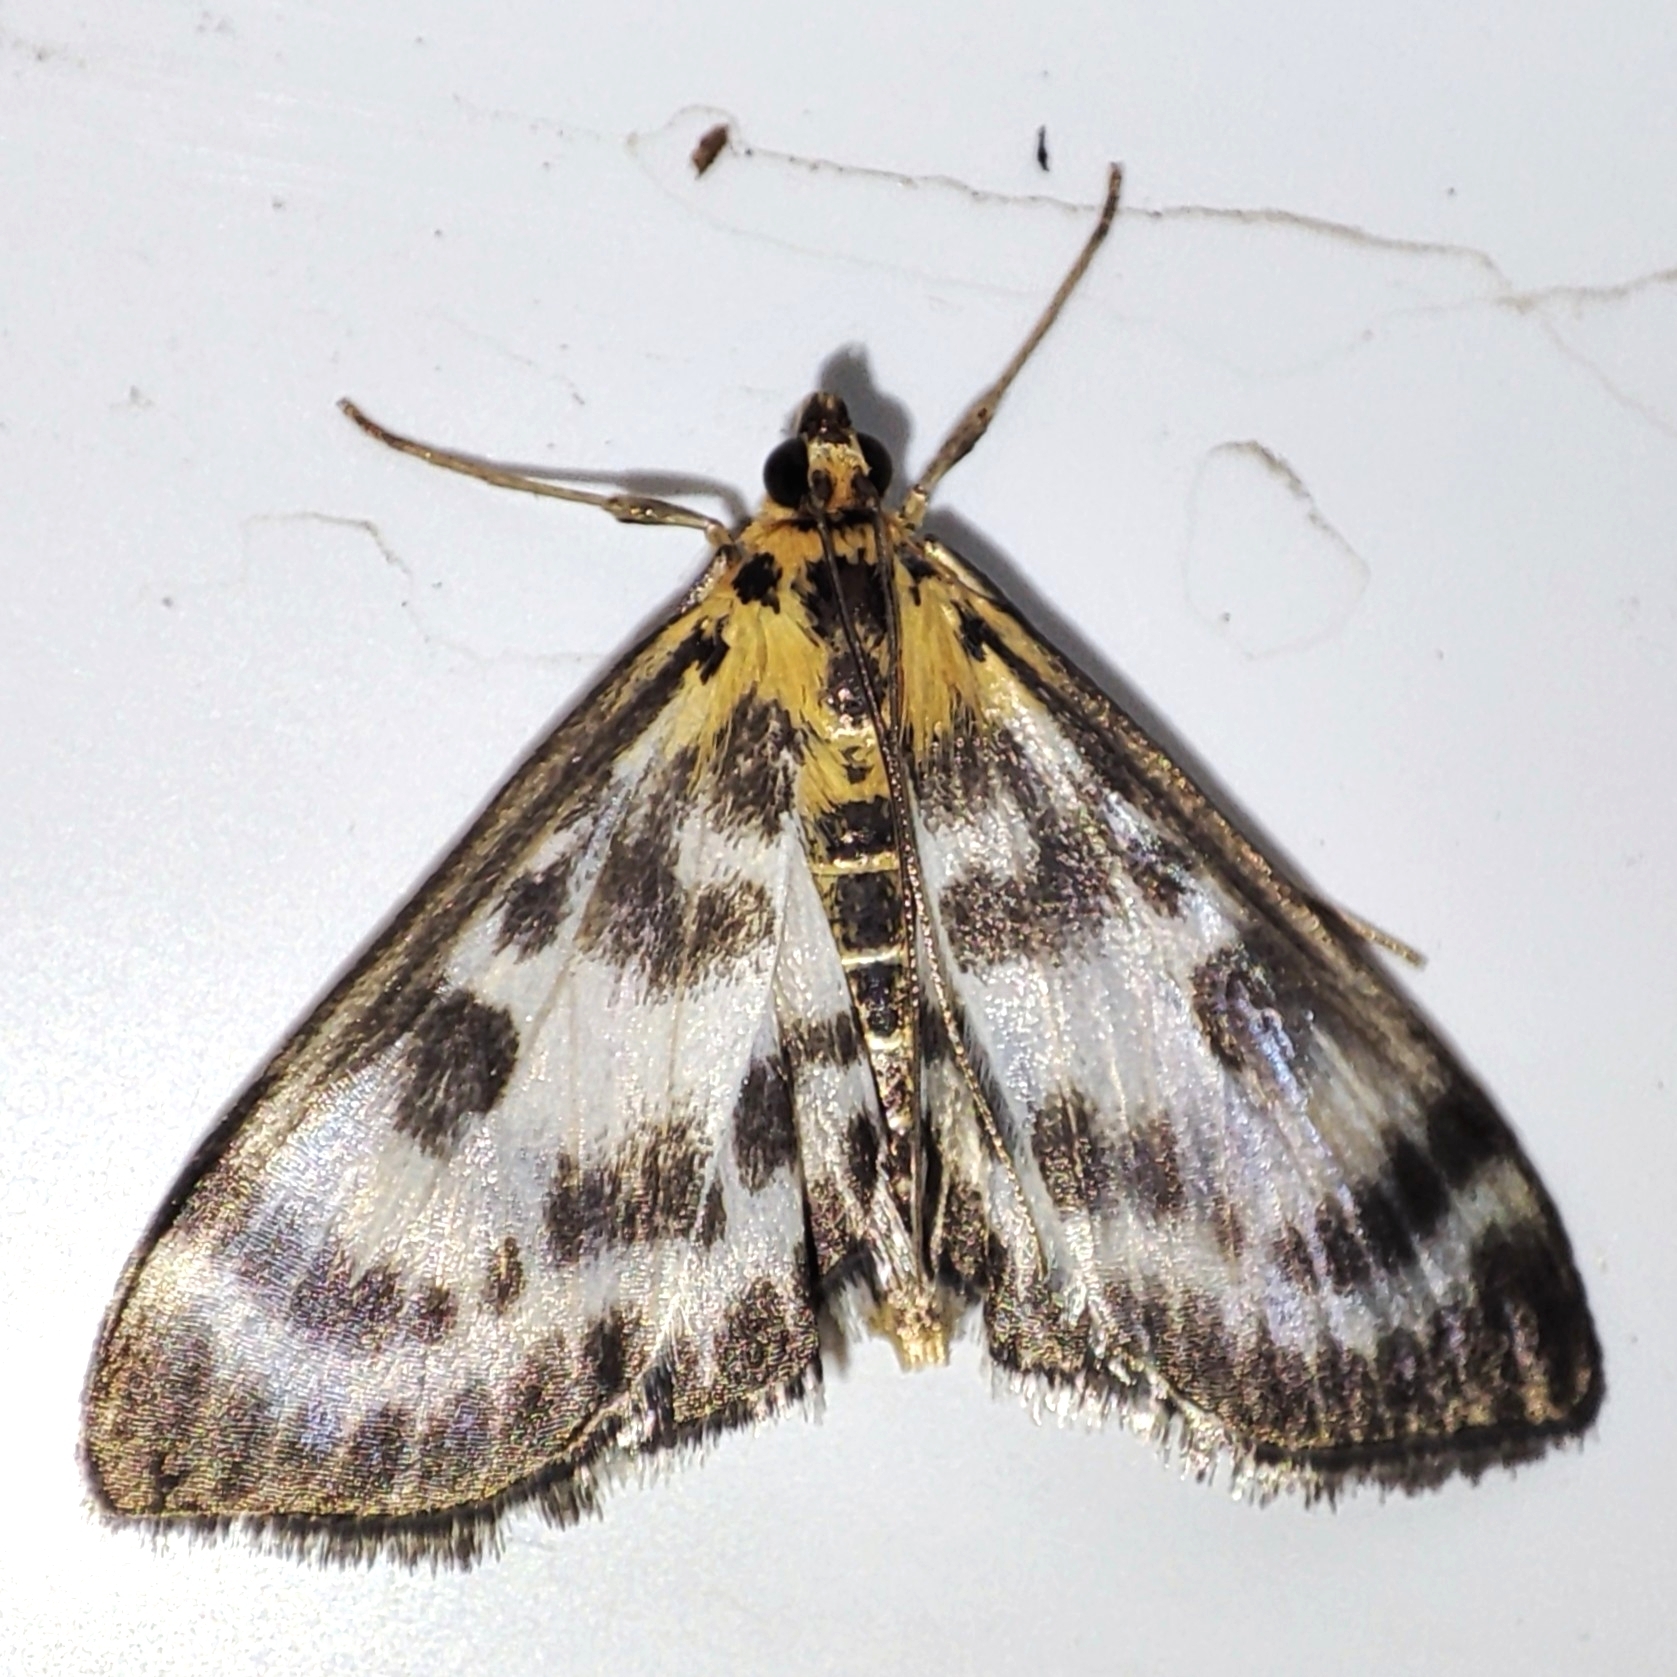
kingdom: Animalia
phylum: Arthropoda
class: Insecta
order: Lepidoptera
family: Crambidae
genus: Anania
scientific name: Anania hortulata
